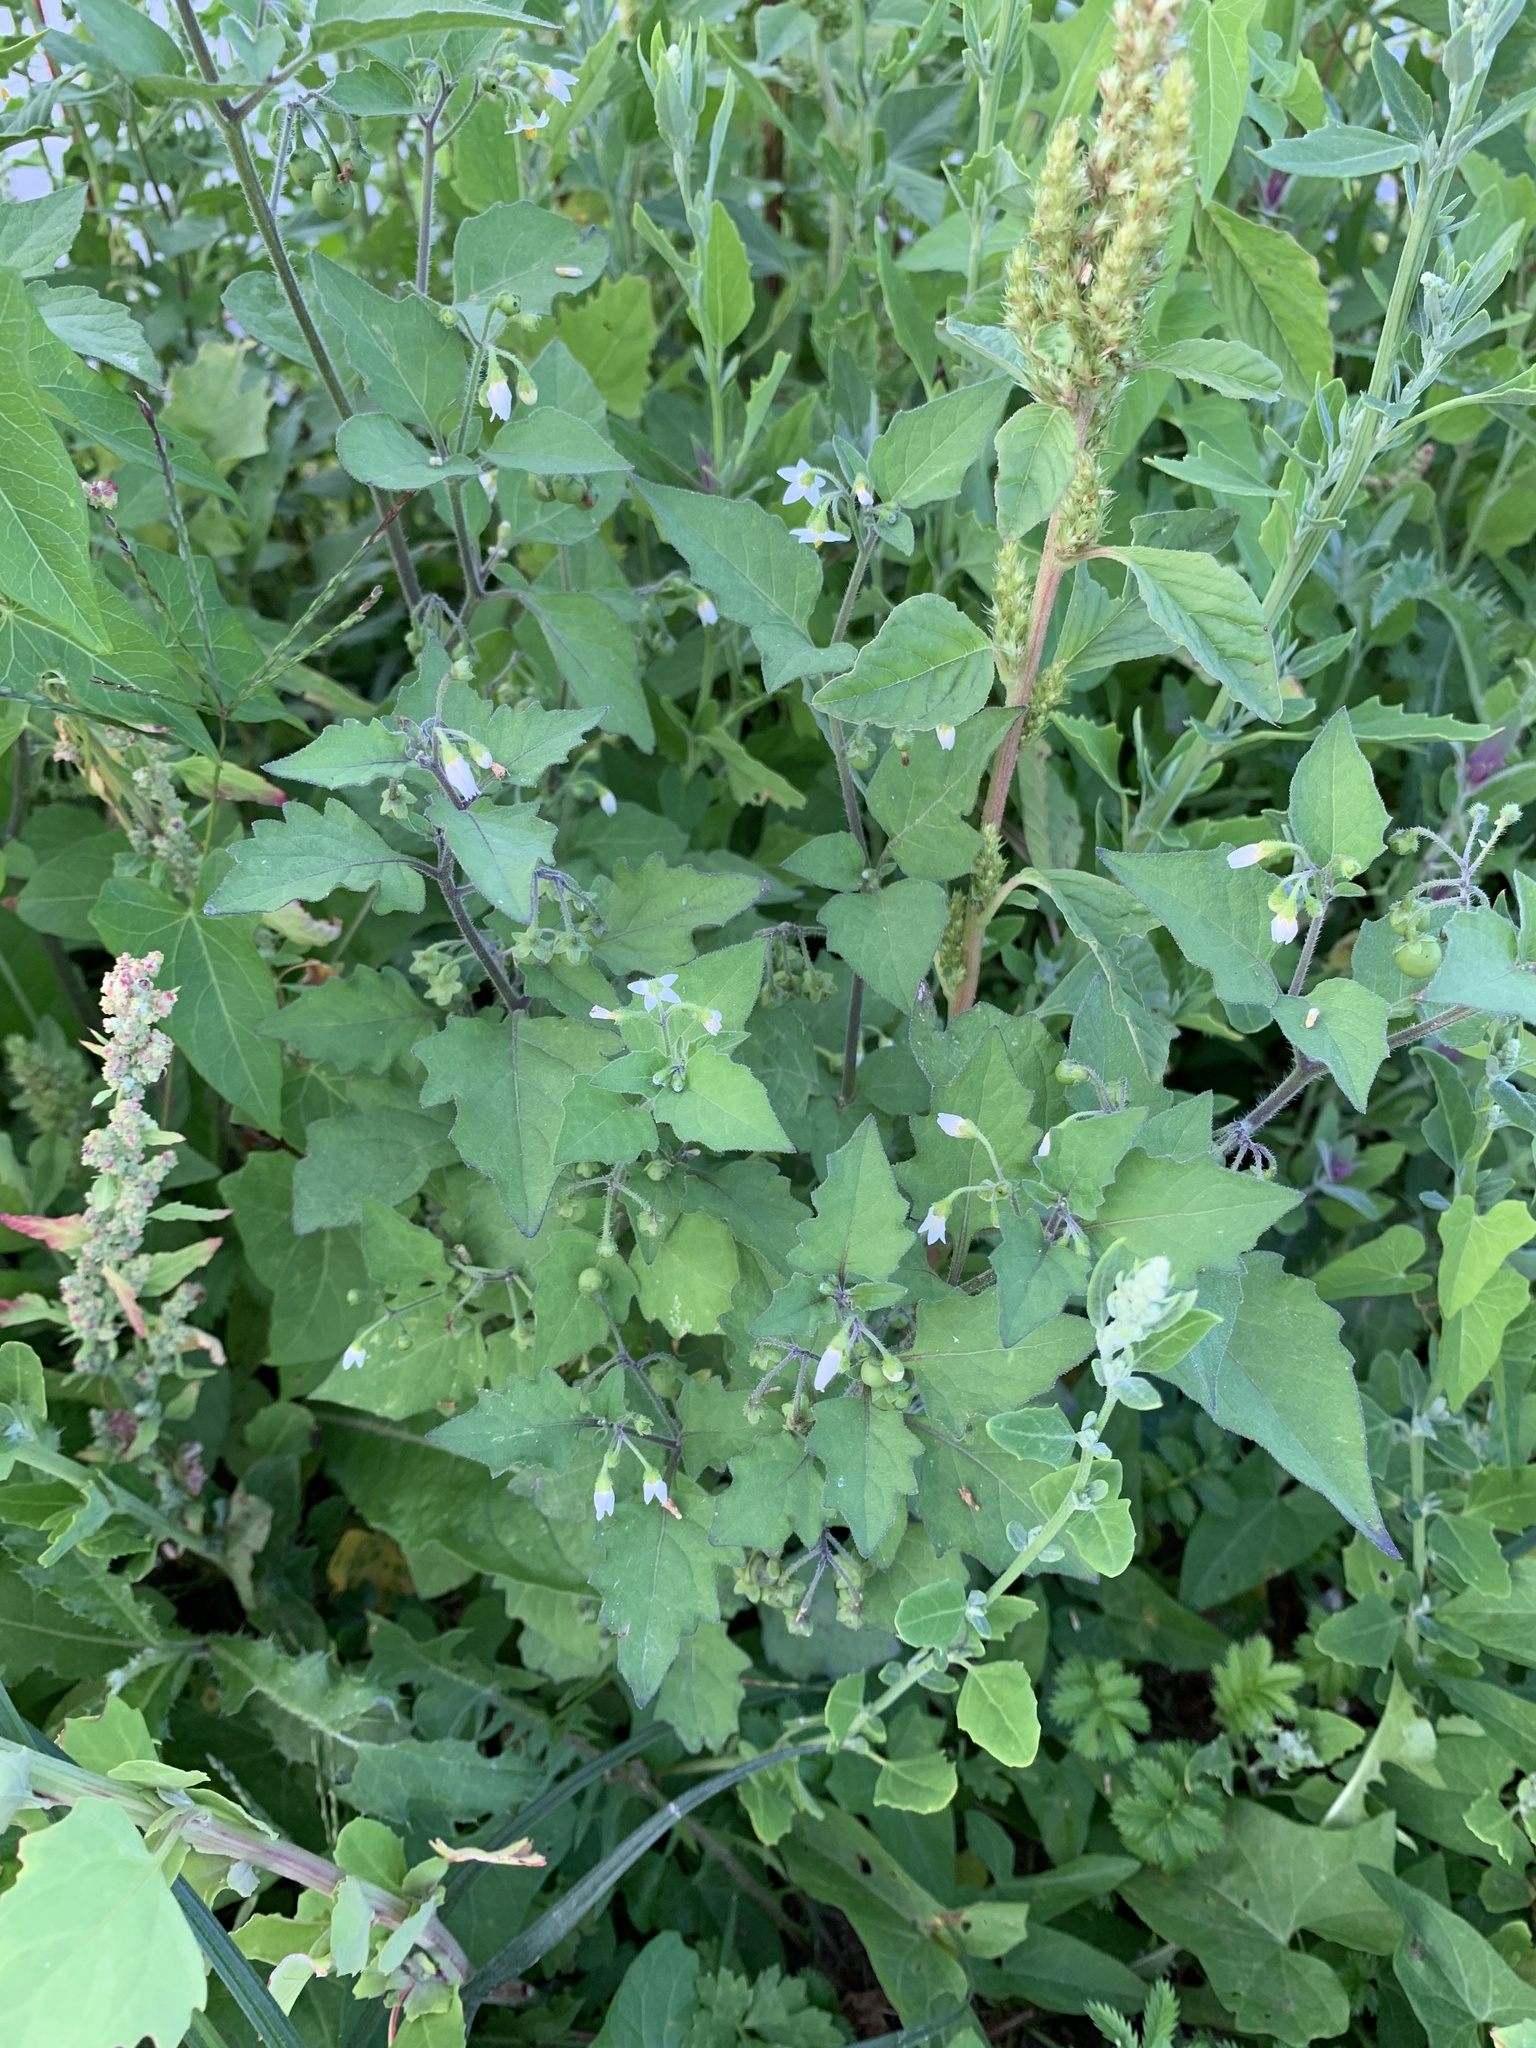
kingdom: Plantae
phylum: Tracheophyta
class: Magnoliopsida
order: Solanales
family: Solanaceae
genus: Solanum
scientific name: Solanum nigrum
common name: Black nightshade
